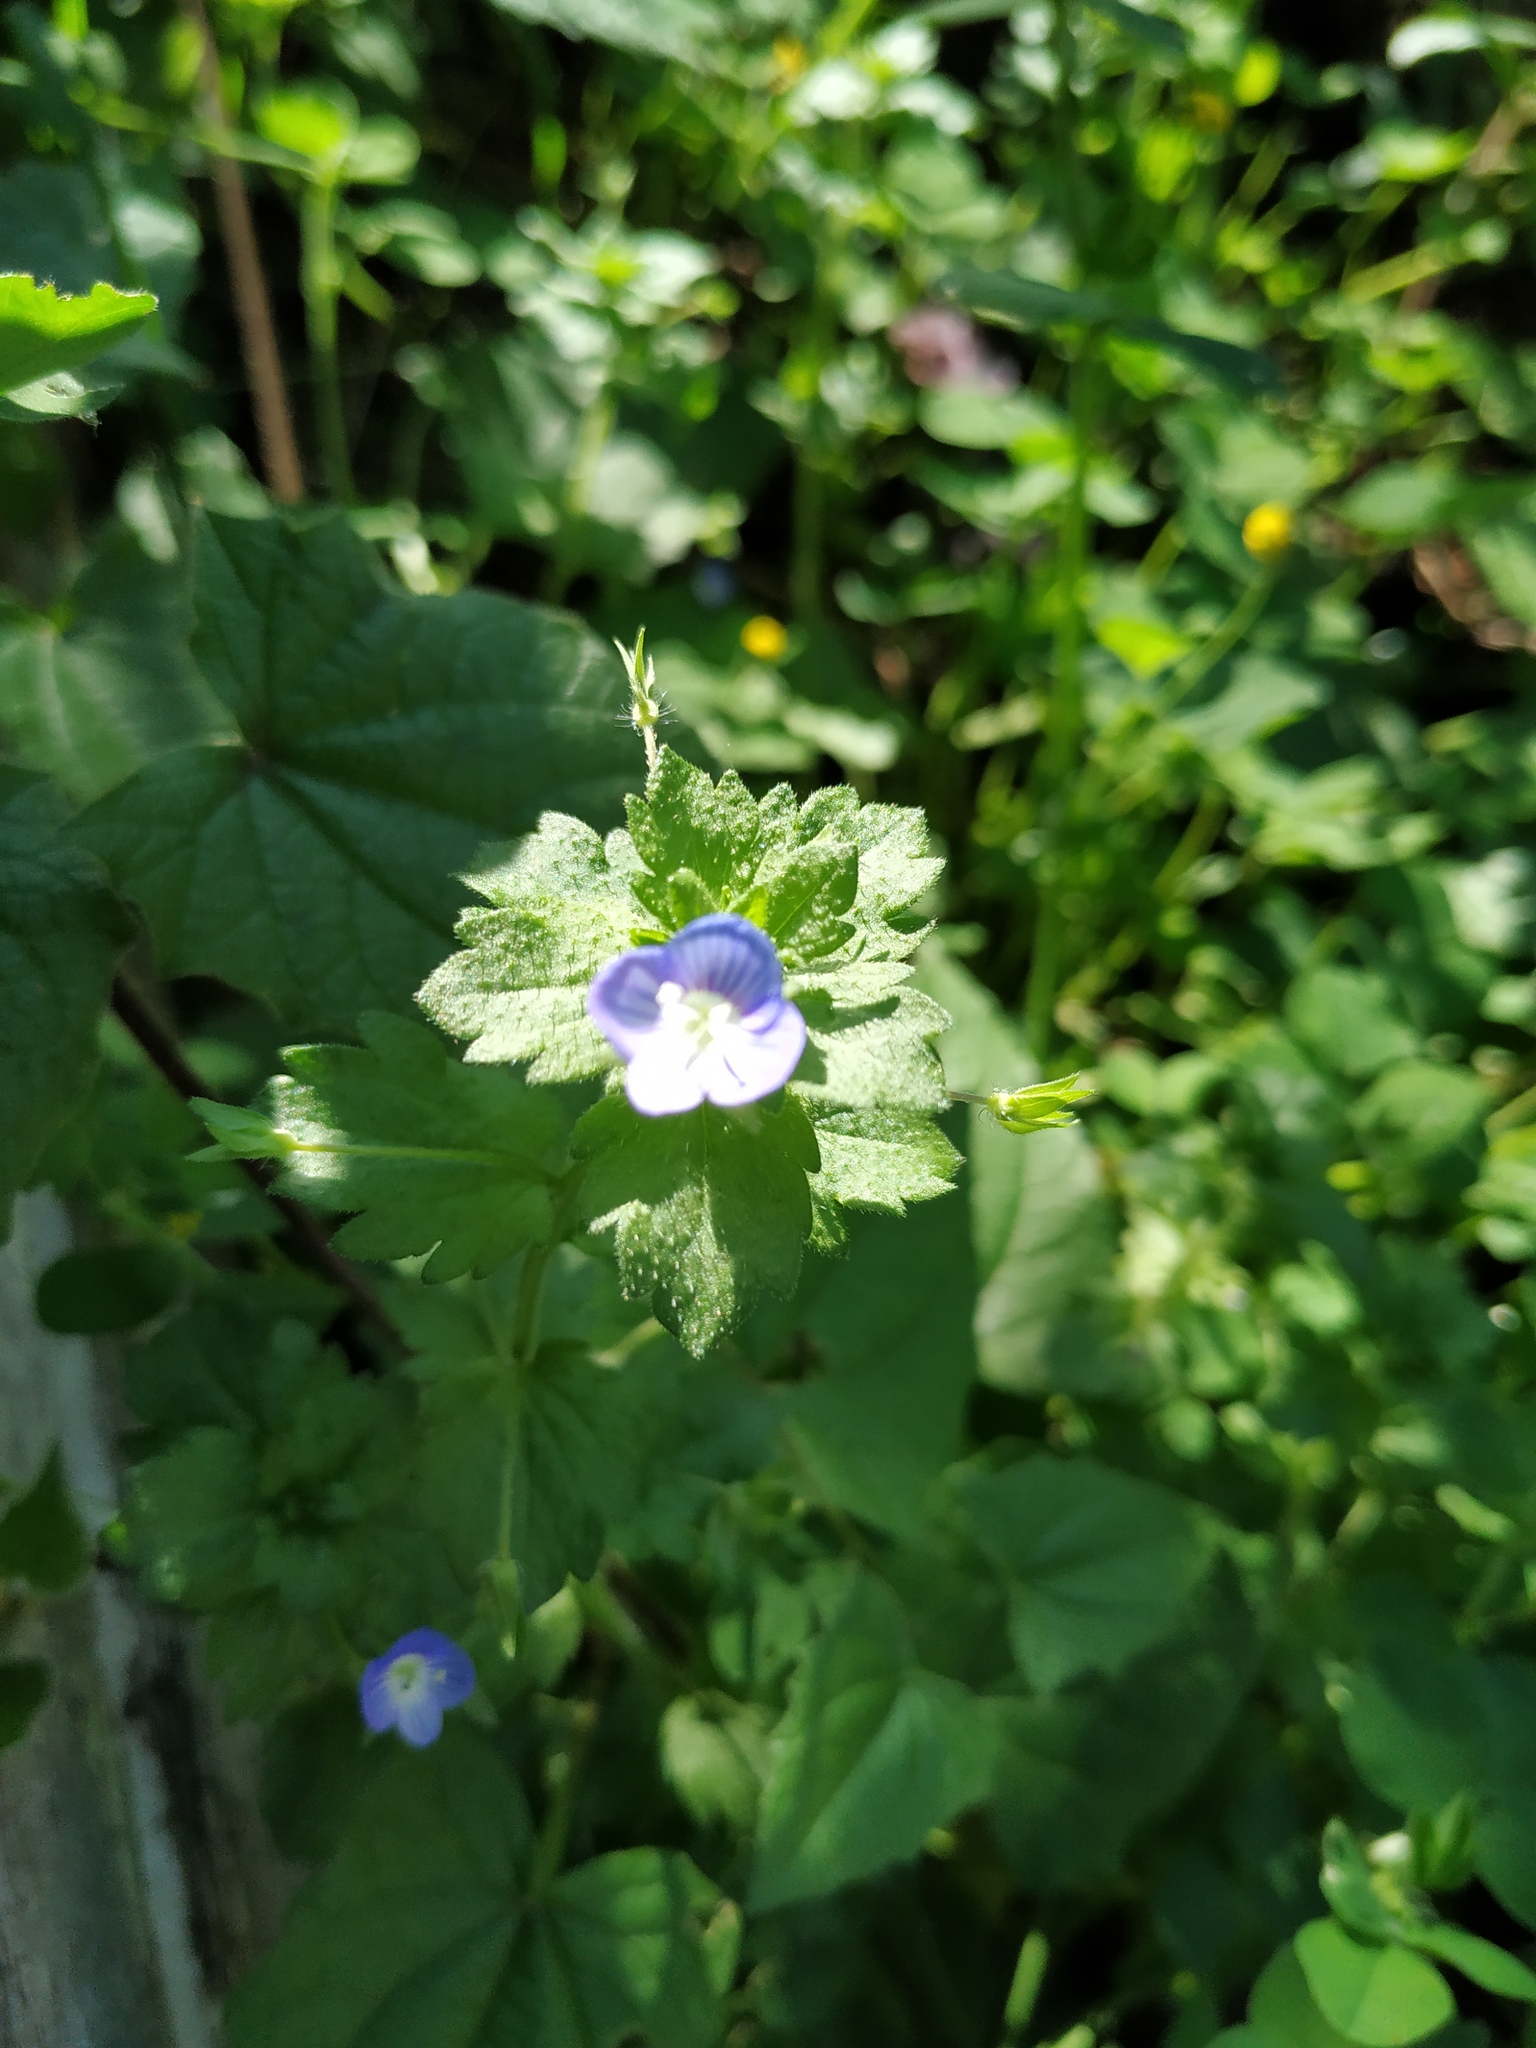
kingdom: Plantae
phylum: Tracheophyta
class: Magnoliopsida
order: Lamiales
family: Plantaginaceae
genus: Veronica
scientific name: Veronica persica
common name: Common field-speedwell
